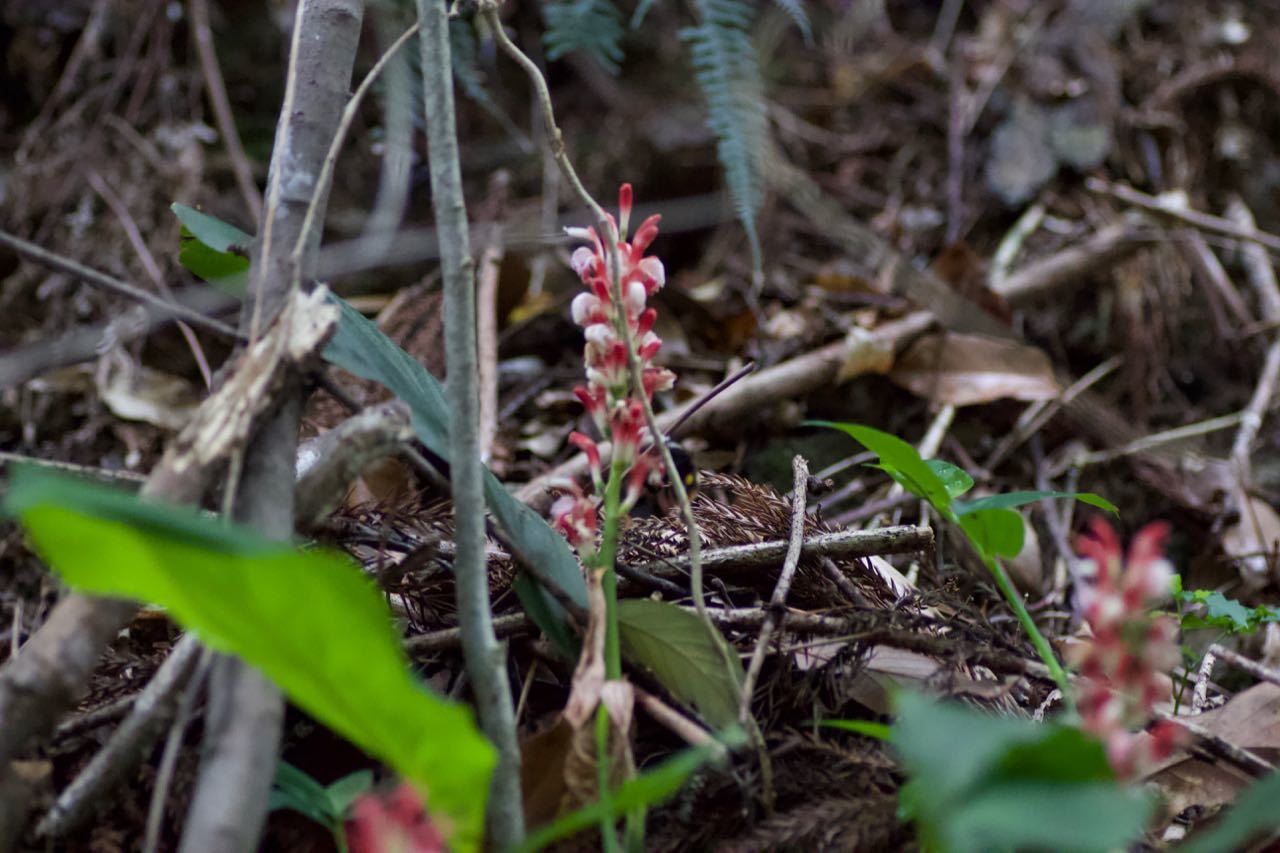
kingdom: Plantae
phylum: Tracheophyta
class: Liliopsida
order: Zingiberales
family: Zingiberaceae
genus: Alpinia
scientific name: Alpinia japonica
